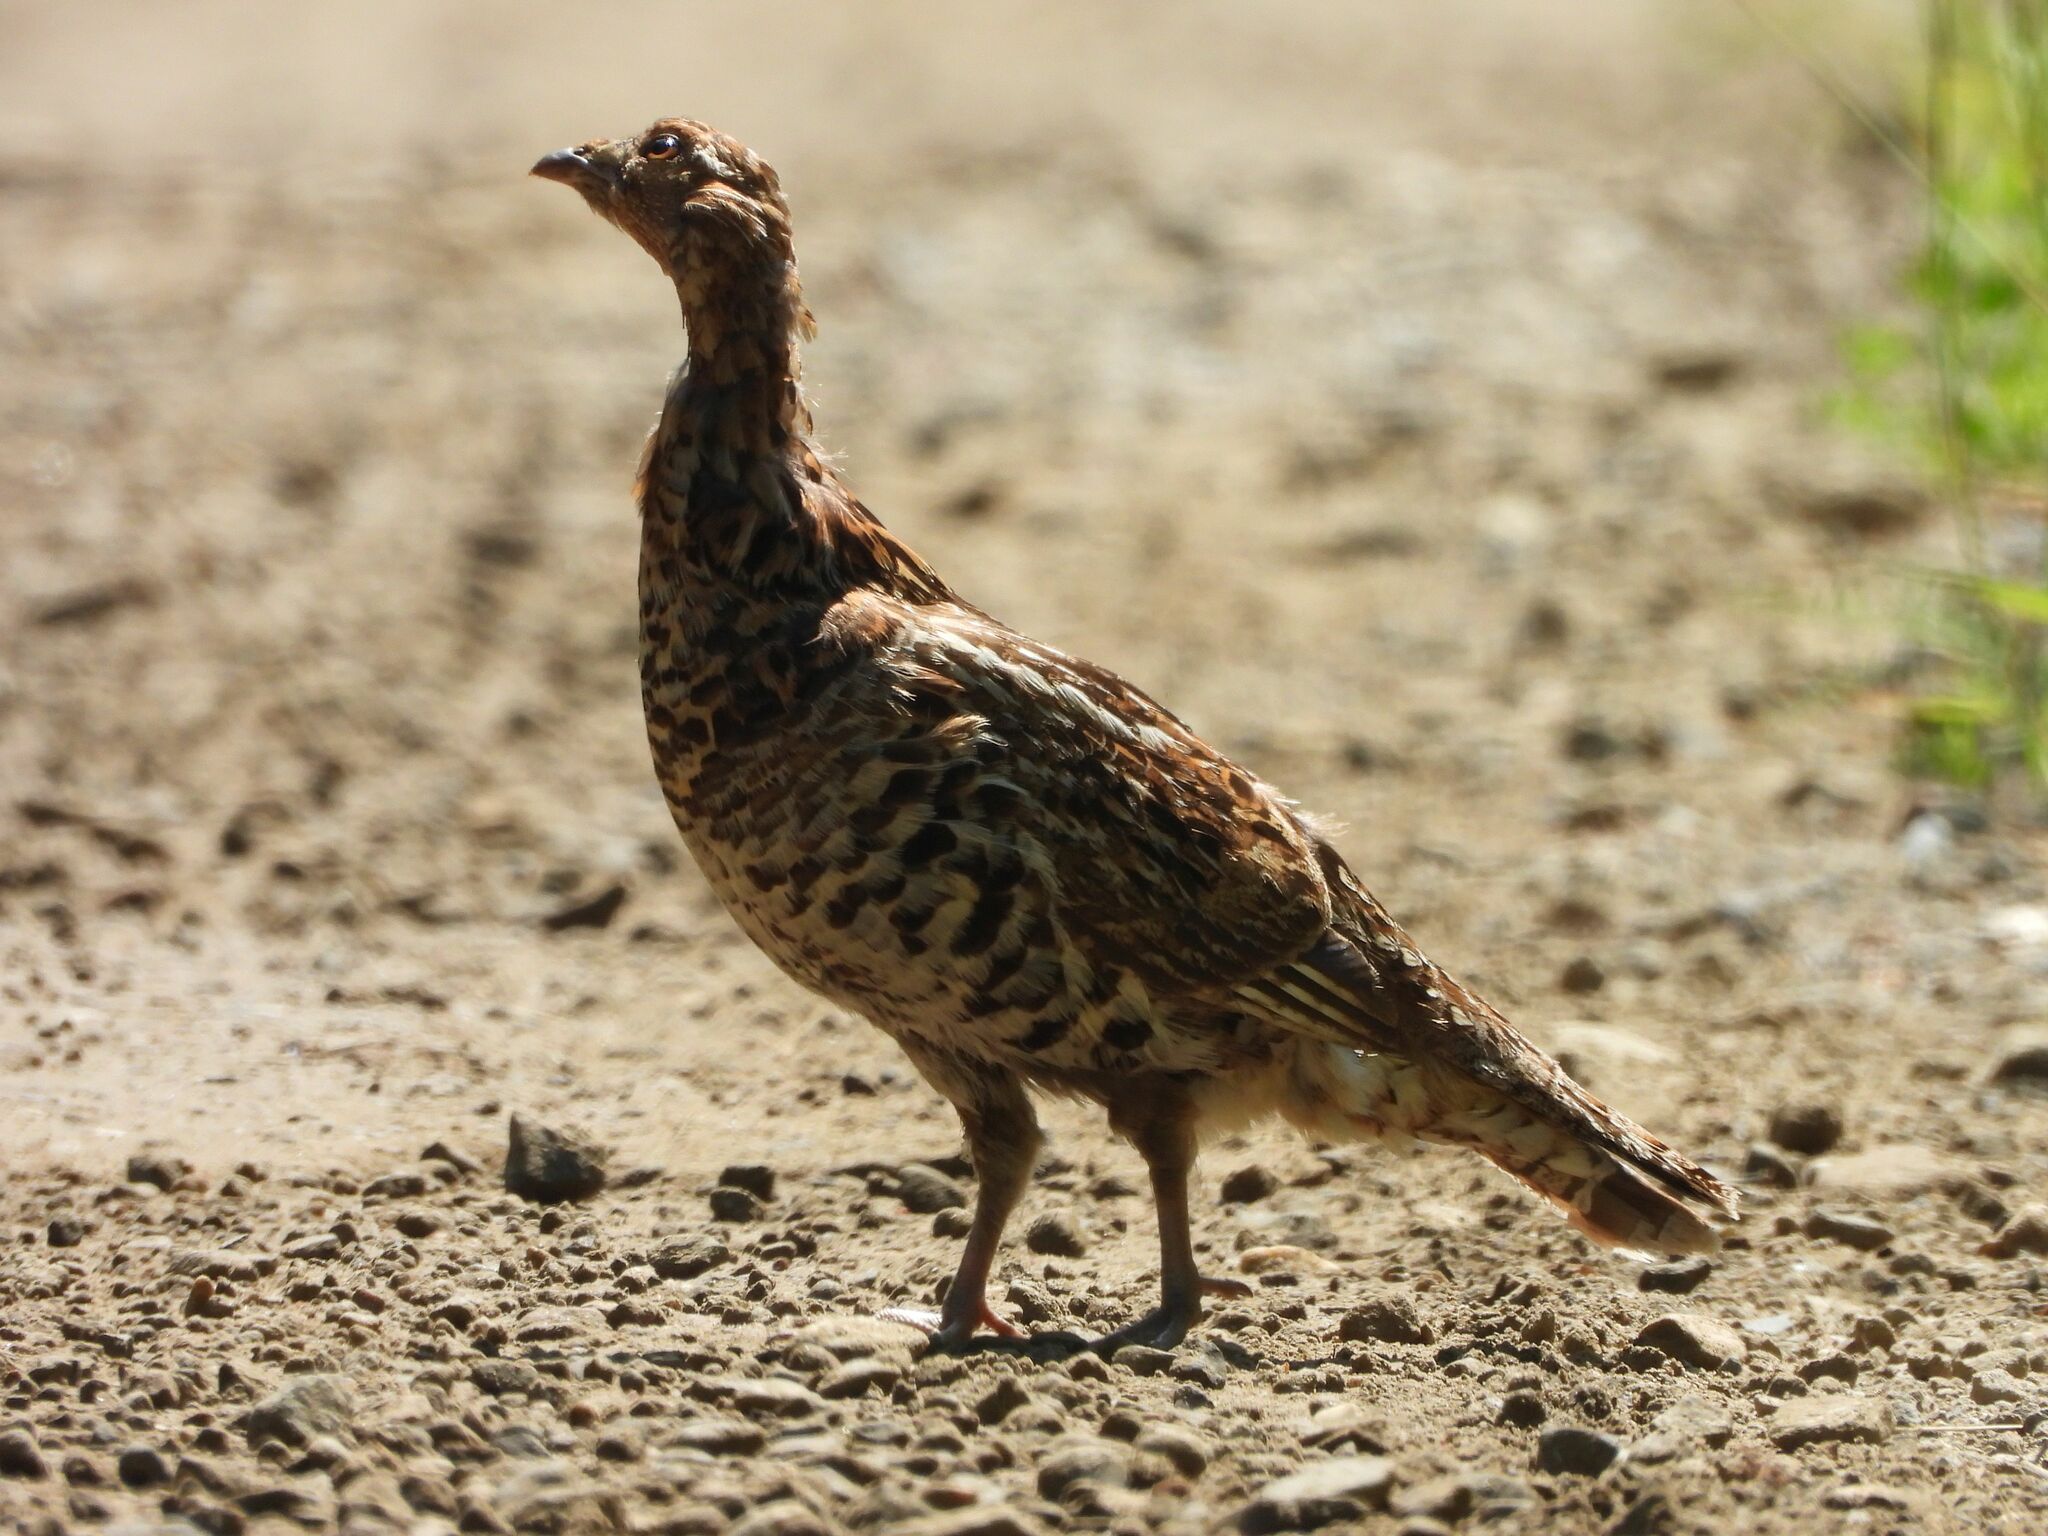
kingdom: Animalia
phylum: Chordata
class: Aves
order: Galliformes
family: Phasianidae
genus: Bonasa
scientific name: Bonasa umbellus
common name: Ruffed grouse
